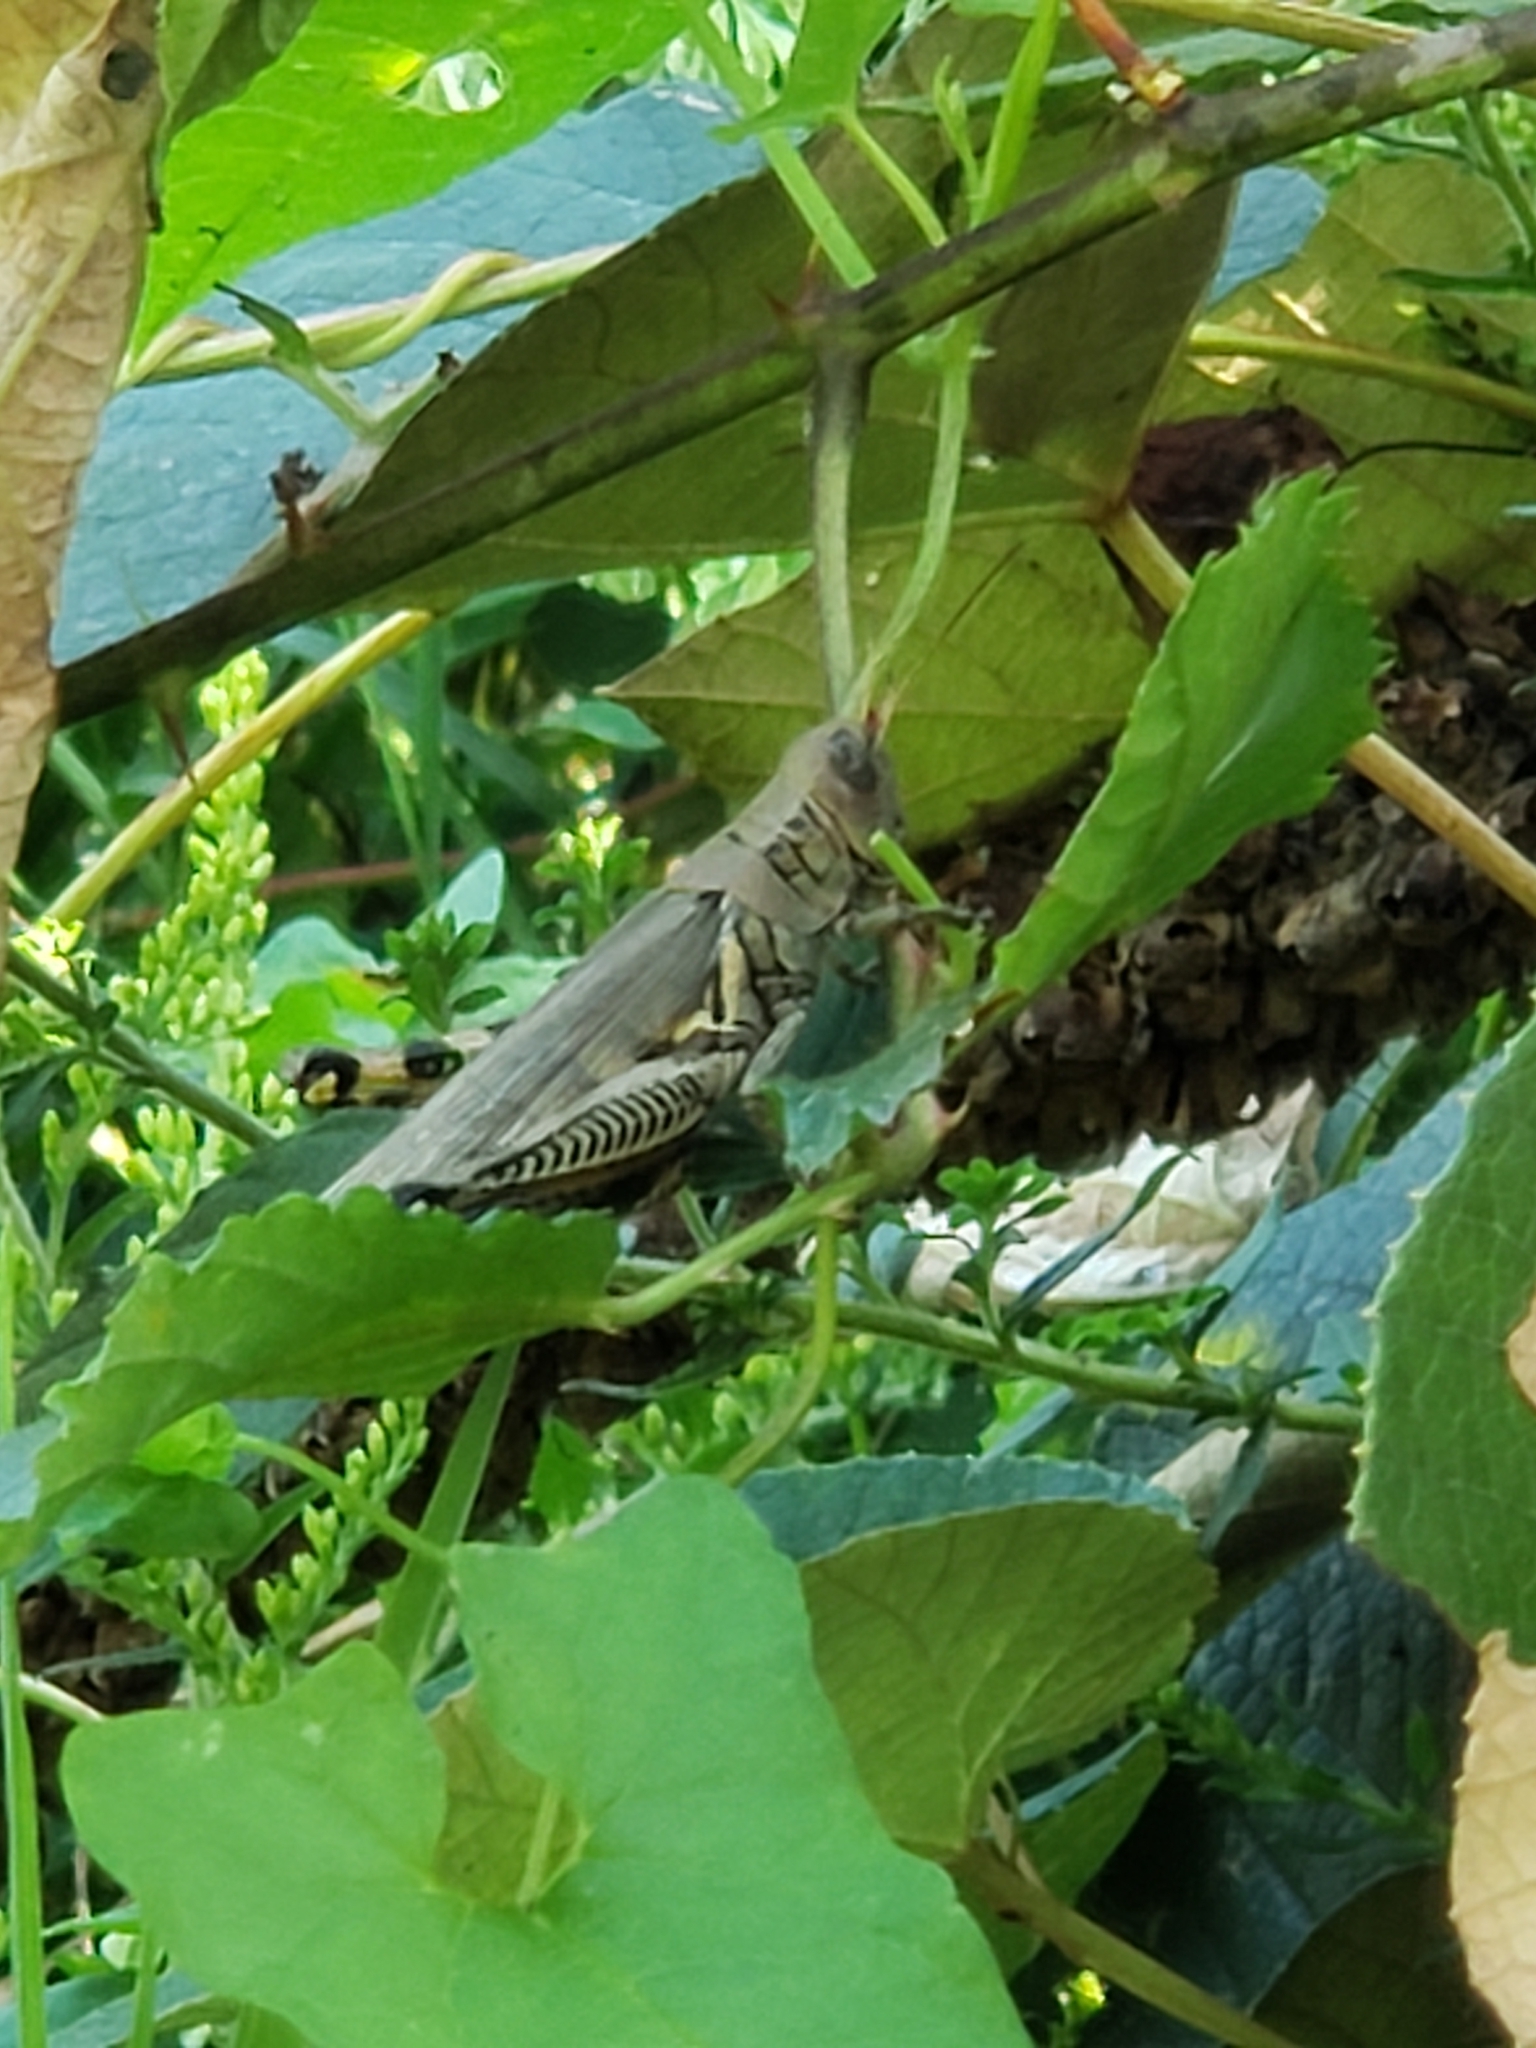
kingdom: Animalia
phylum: Arthropoda
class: Insecta
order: Orthoptera
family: Acrididae
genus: Melanoplus
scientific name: Melanoplus differentialis
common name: Differential grasshopper
